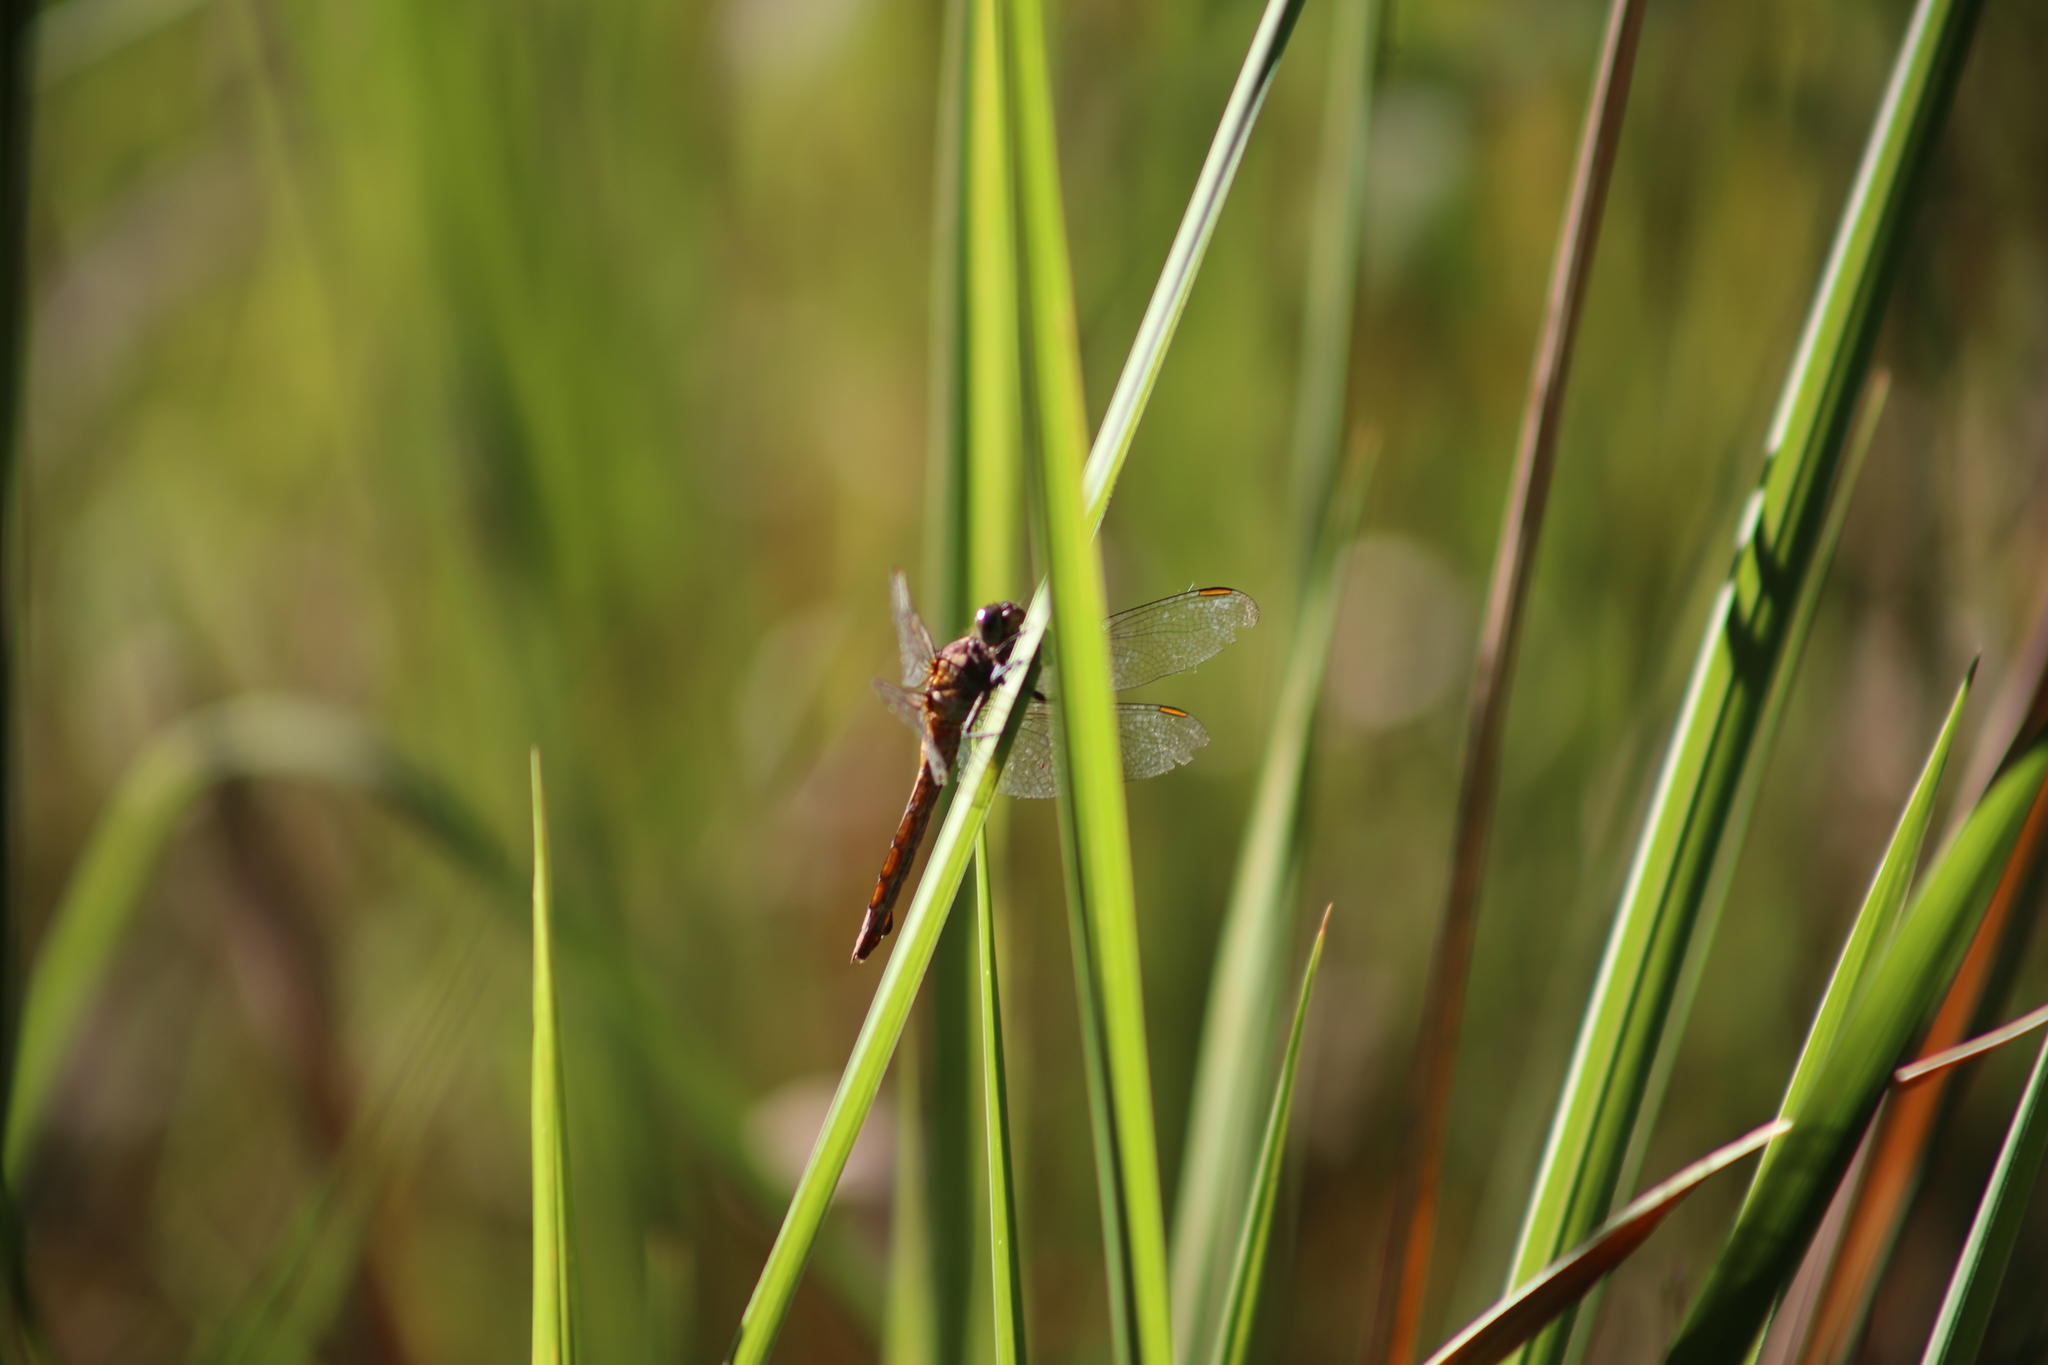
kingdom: Animalia
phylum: Arthropoda
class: Insecta
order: Odonata
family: Libellulidae
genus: Orthetrum
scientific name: Orthetrum villosovittatum
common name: Firery skimmer
